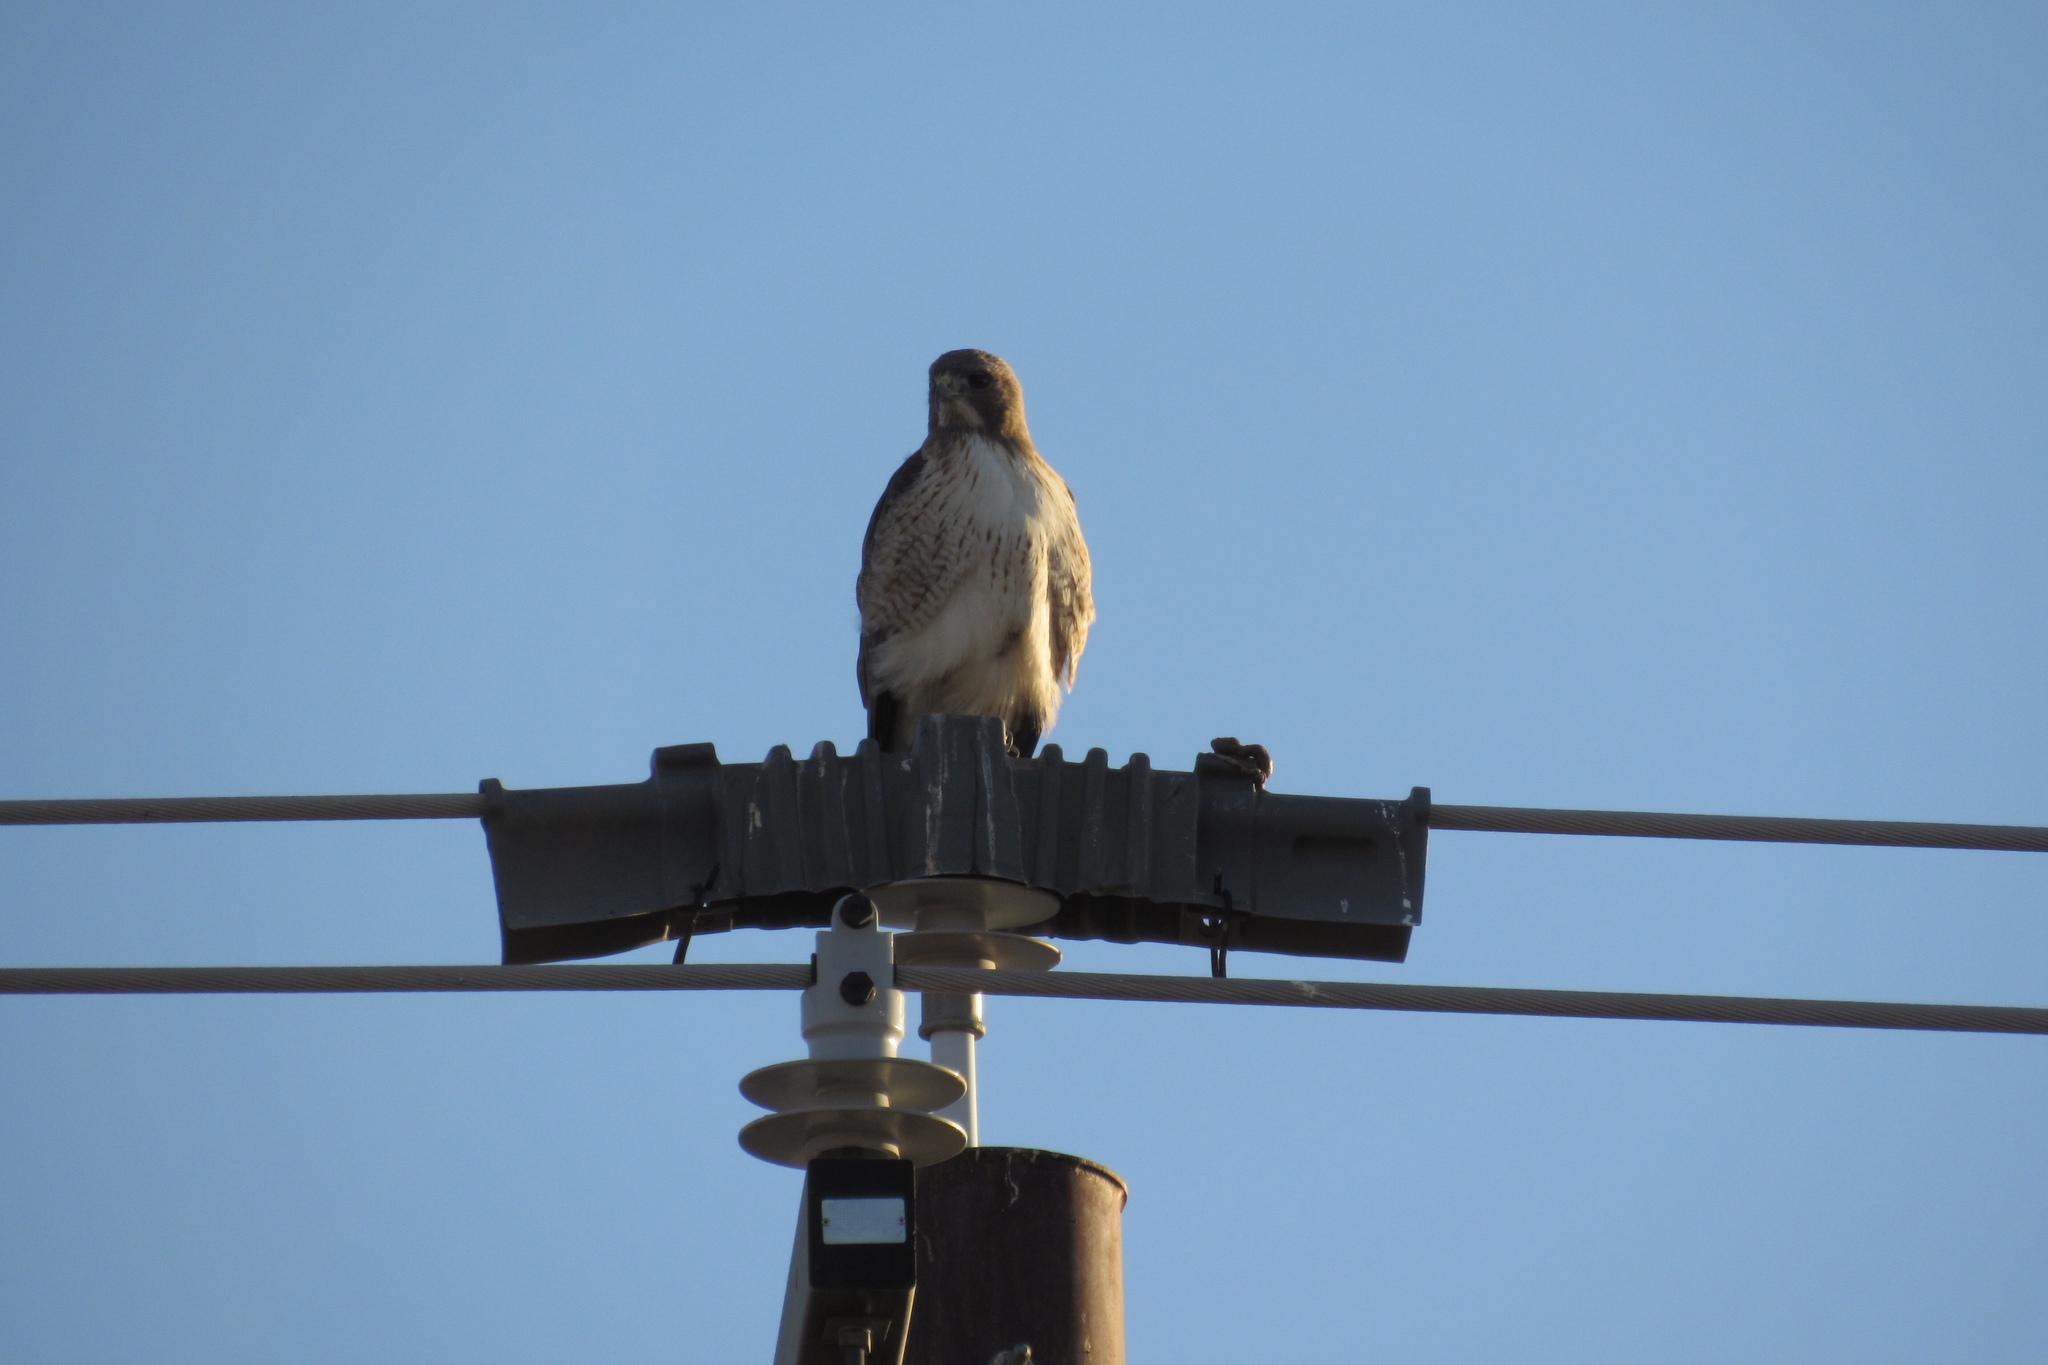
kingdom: Animalia
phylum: Chordata
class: Aves
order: Accipitriformes
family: Accipitridae
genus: Buteo
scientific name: Buteo jamaicensis
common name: Red-tailed hawk
